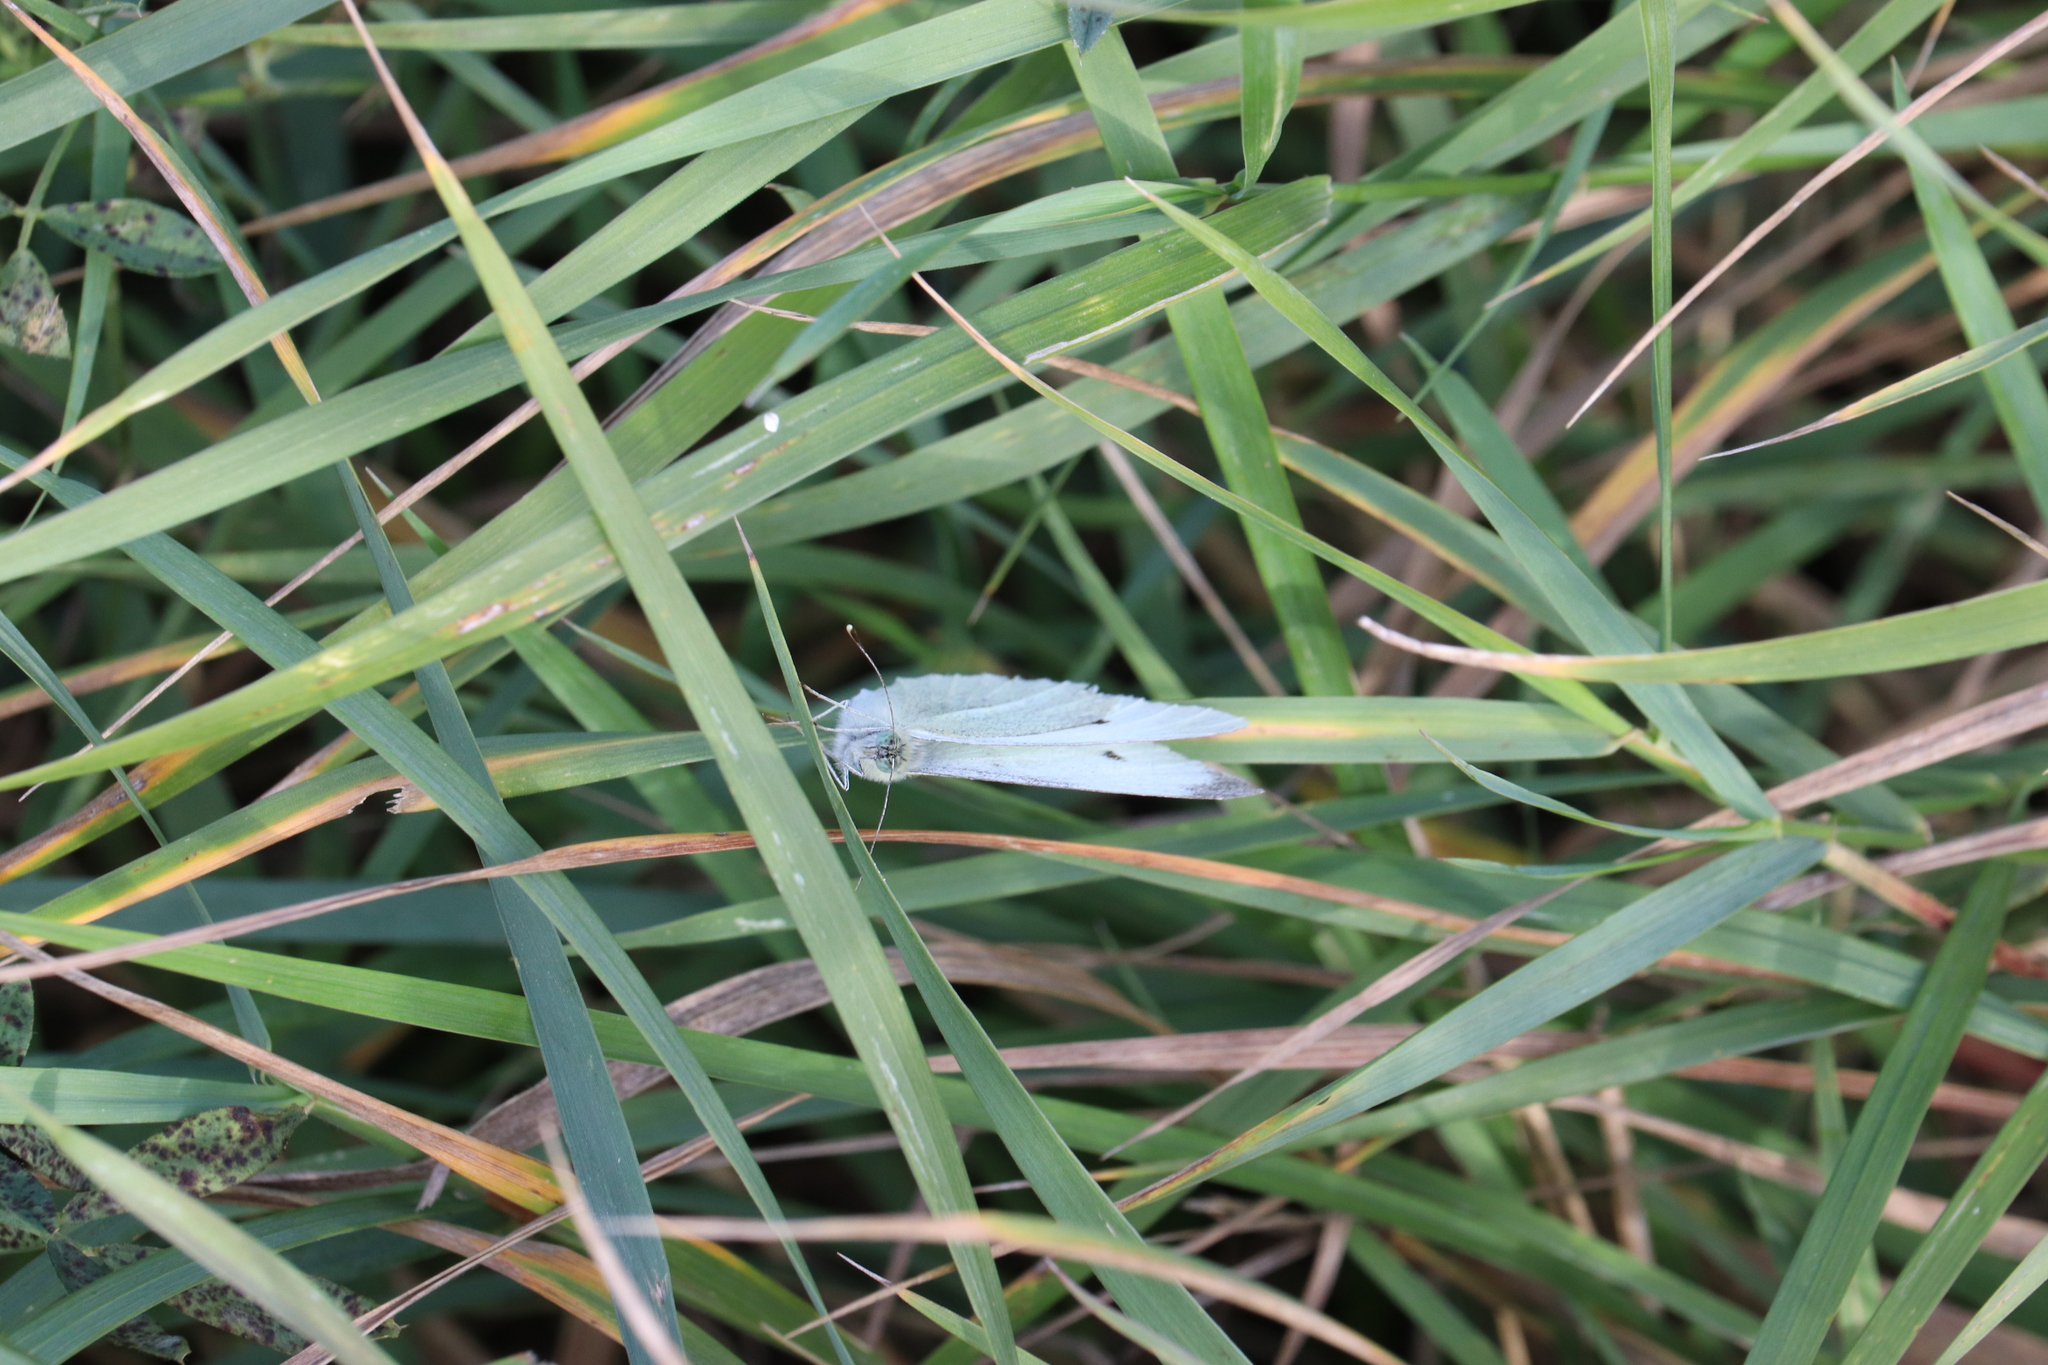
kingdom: Animalia
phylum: Arthropoda
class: Insecta
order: Lepidoptera
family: Pieridae
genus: Pieris
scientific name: Pieris rapae
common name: Small white
